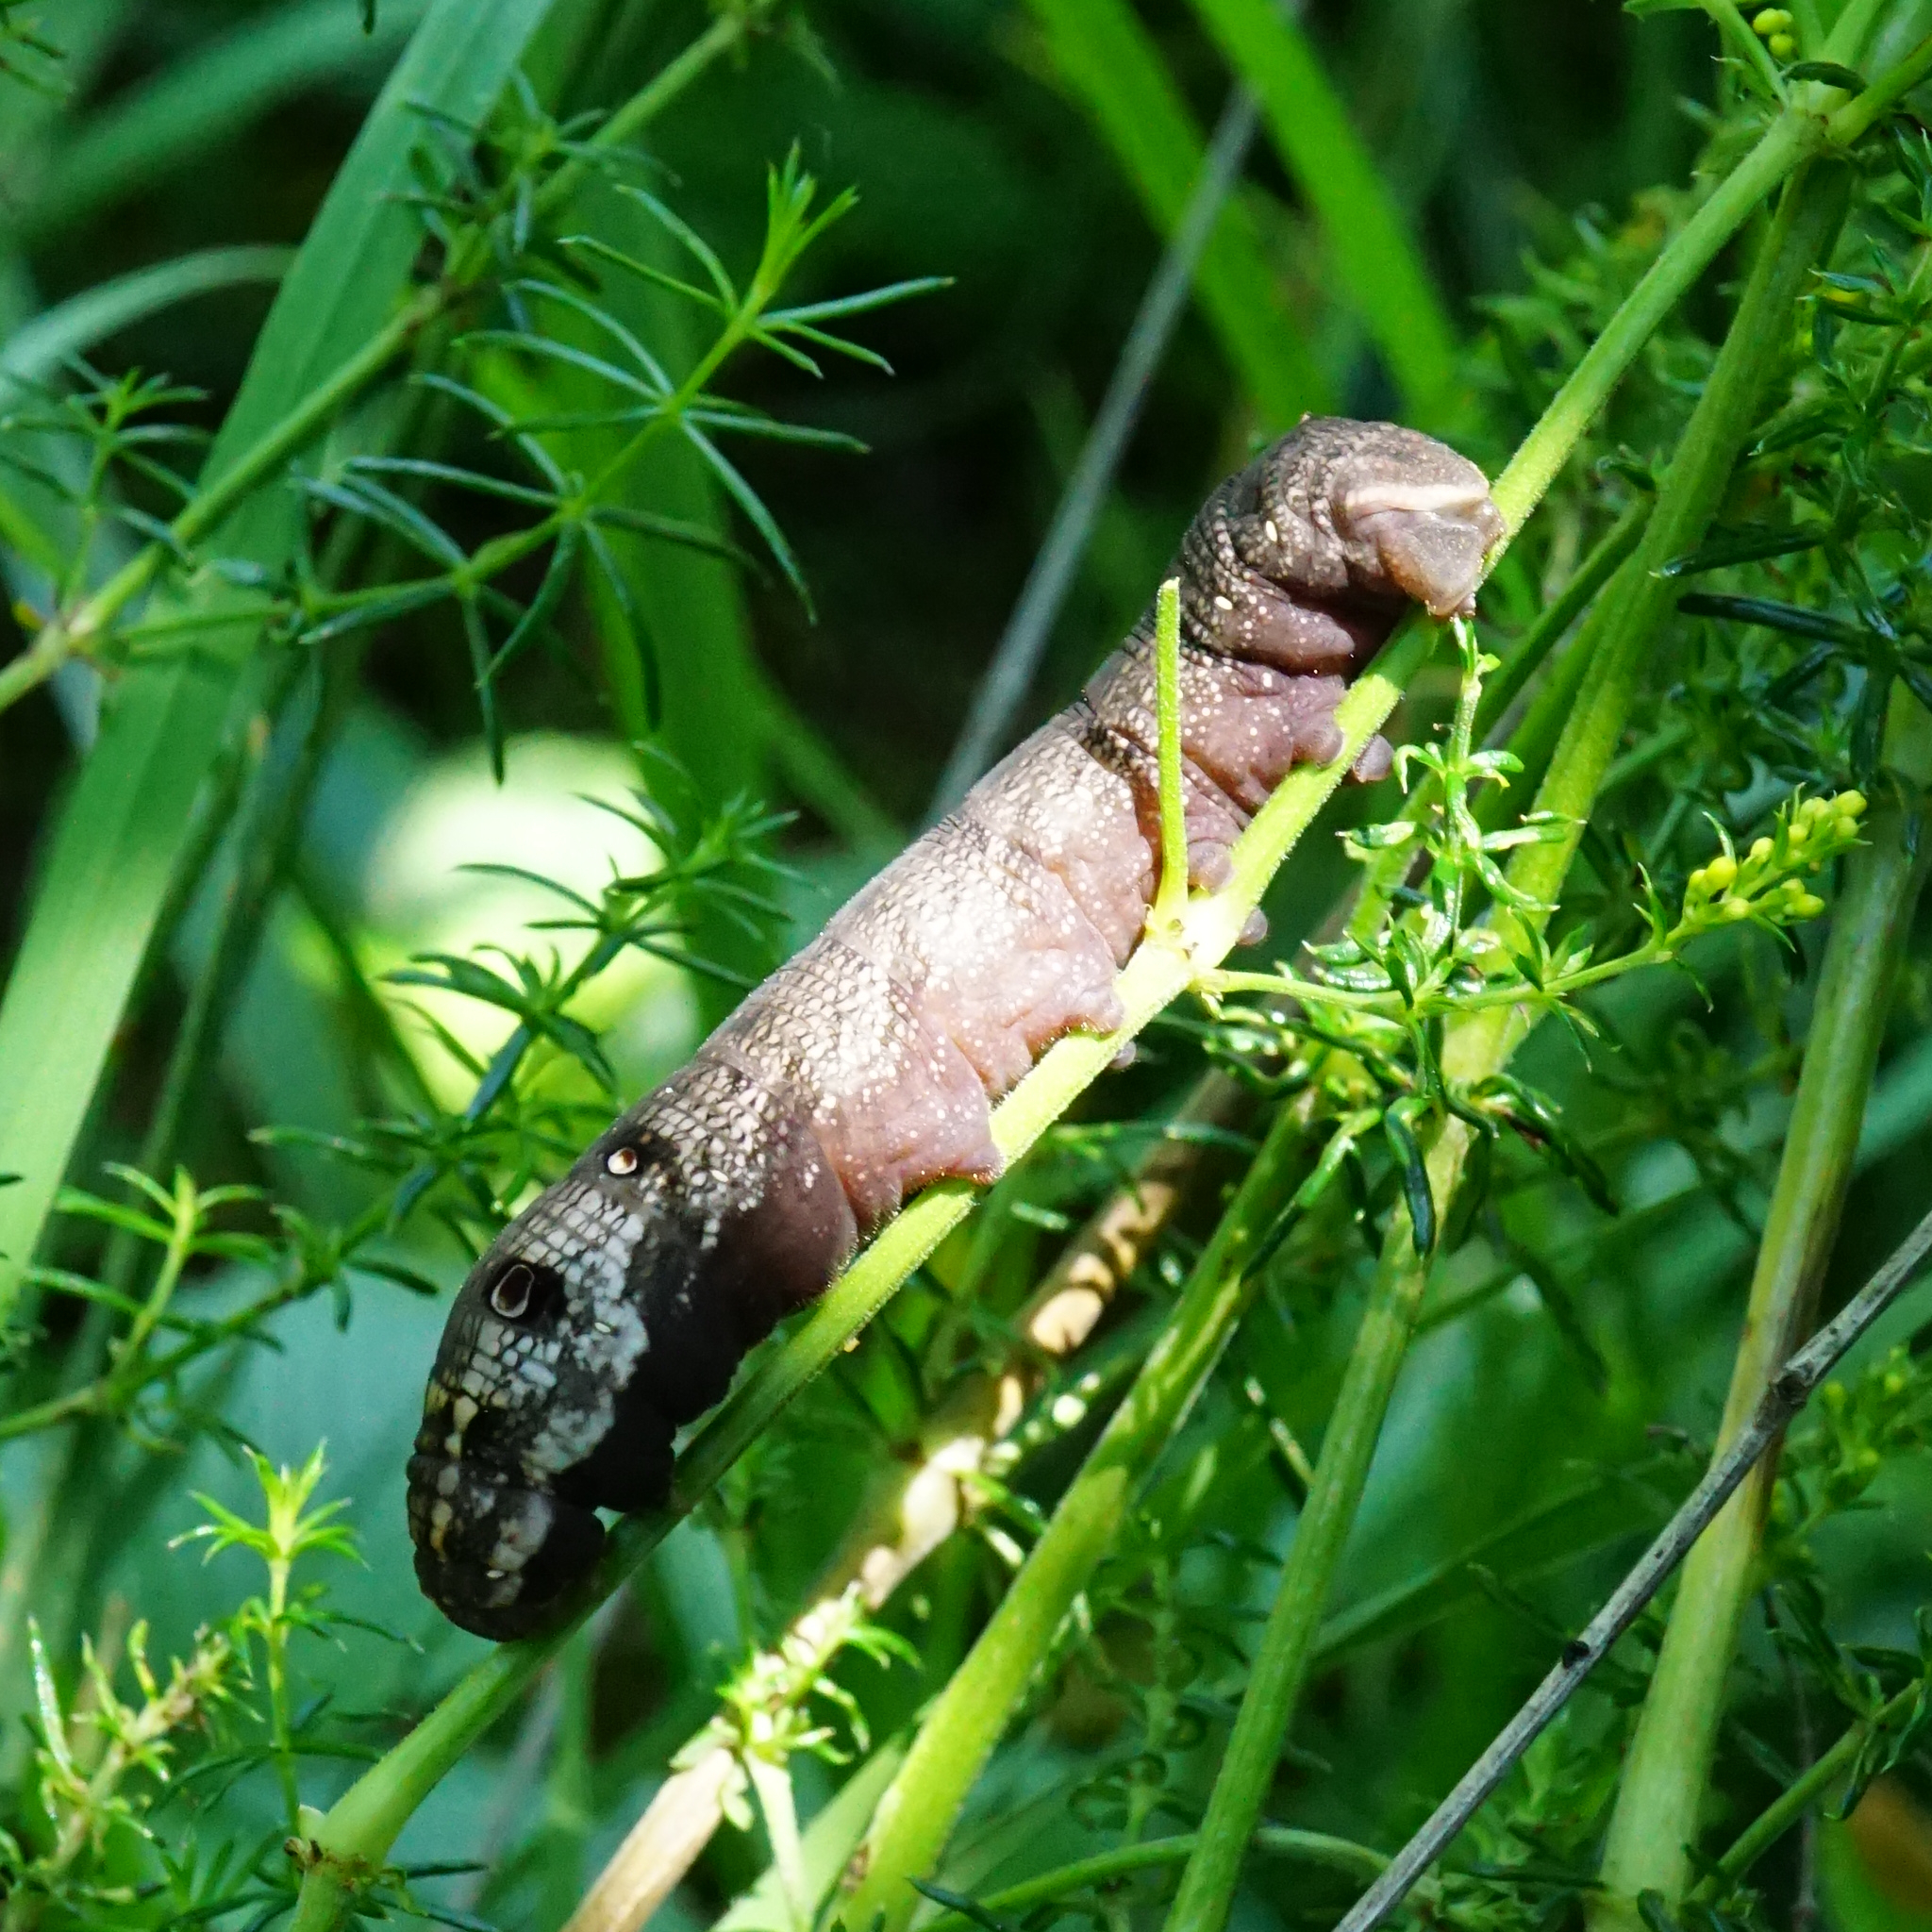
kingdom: Animalia
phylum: Arthropoda
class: Insecta
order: Lepidoptera
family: Sphingidae
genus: Deilephila
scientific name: Deilephila porcellus
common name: Small elephant hawk-moth
